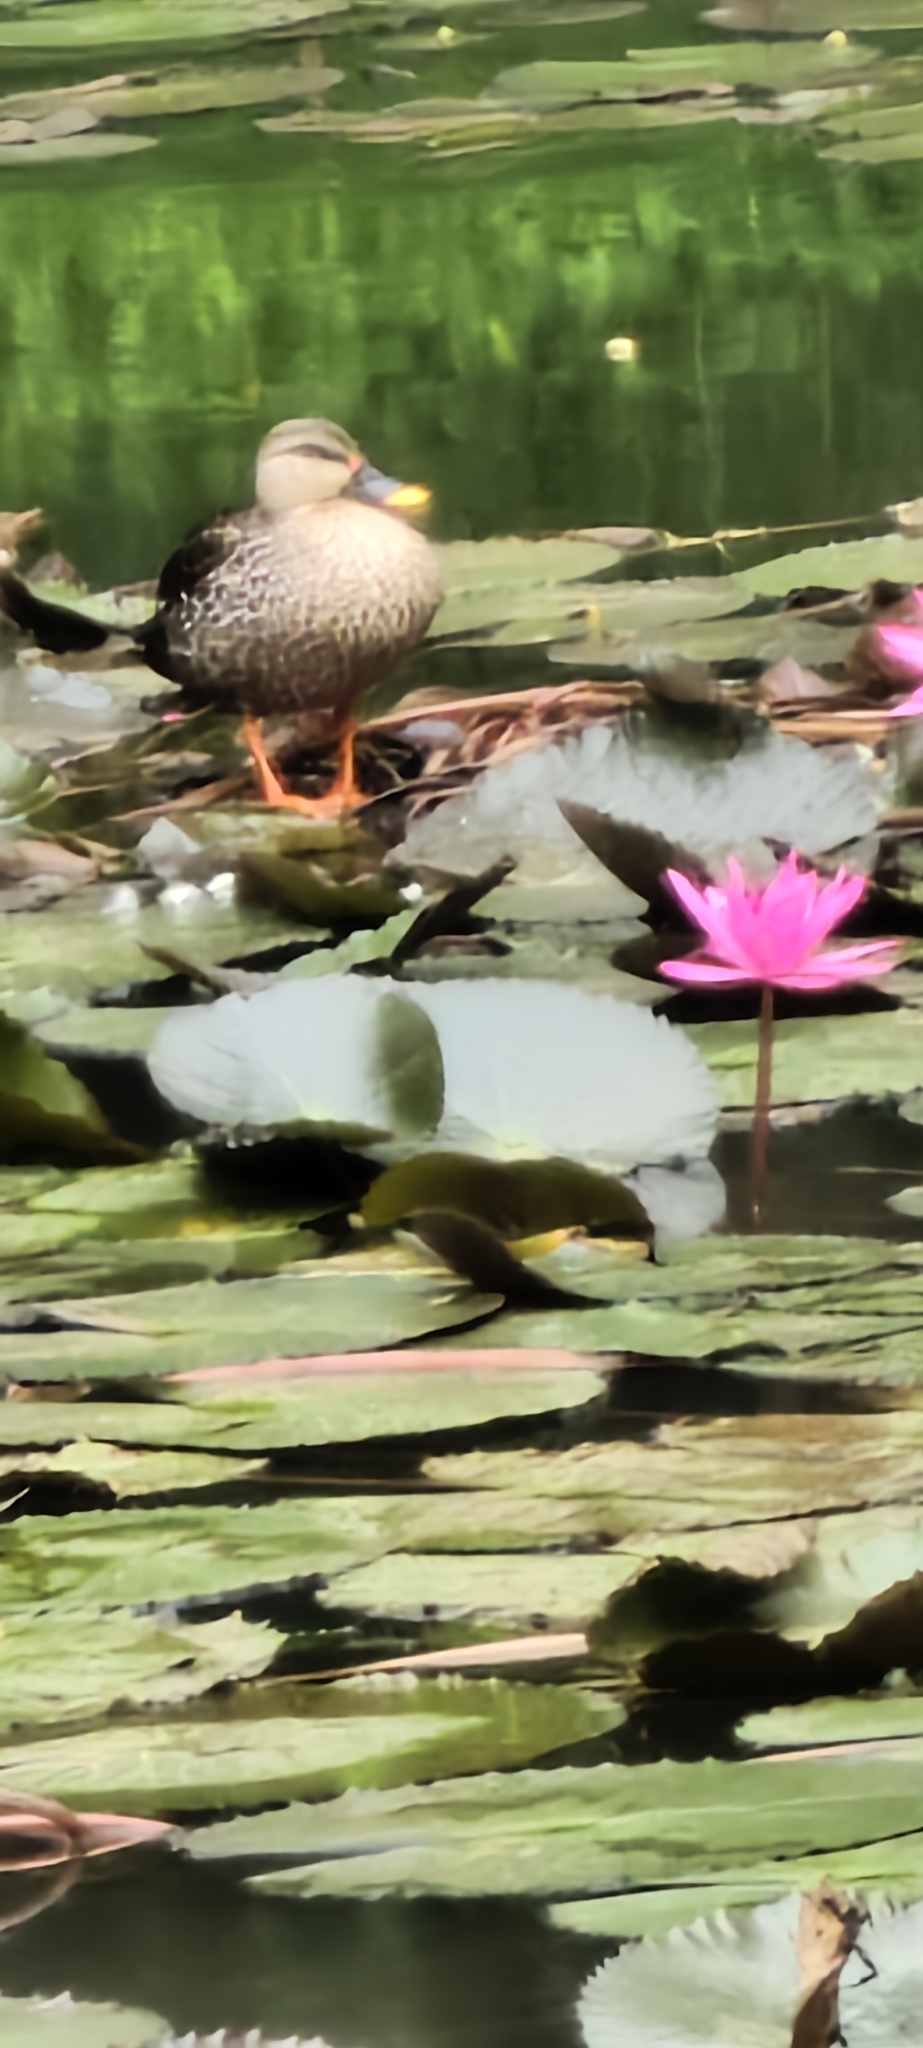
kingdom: Animalia
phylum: Chordata
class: Aves
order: Anseriformes
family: Anatidae
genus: Anas
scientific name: Anas poecilorhyncha
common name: Indian spot-billed duck
